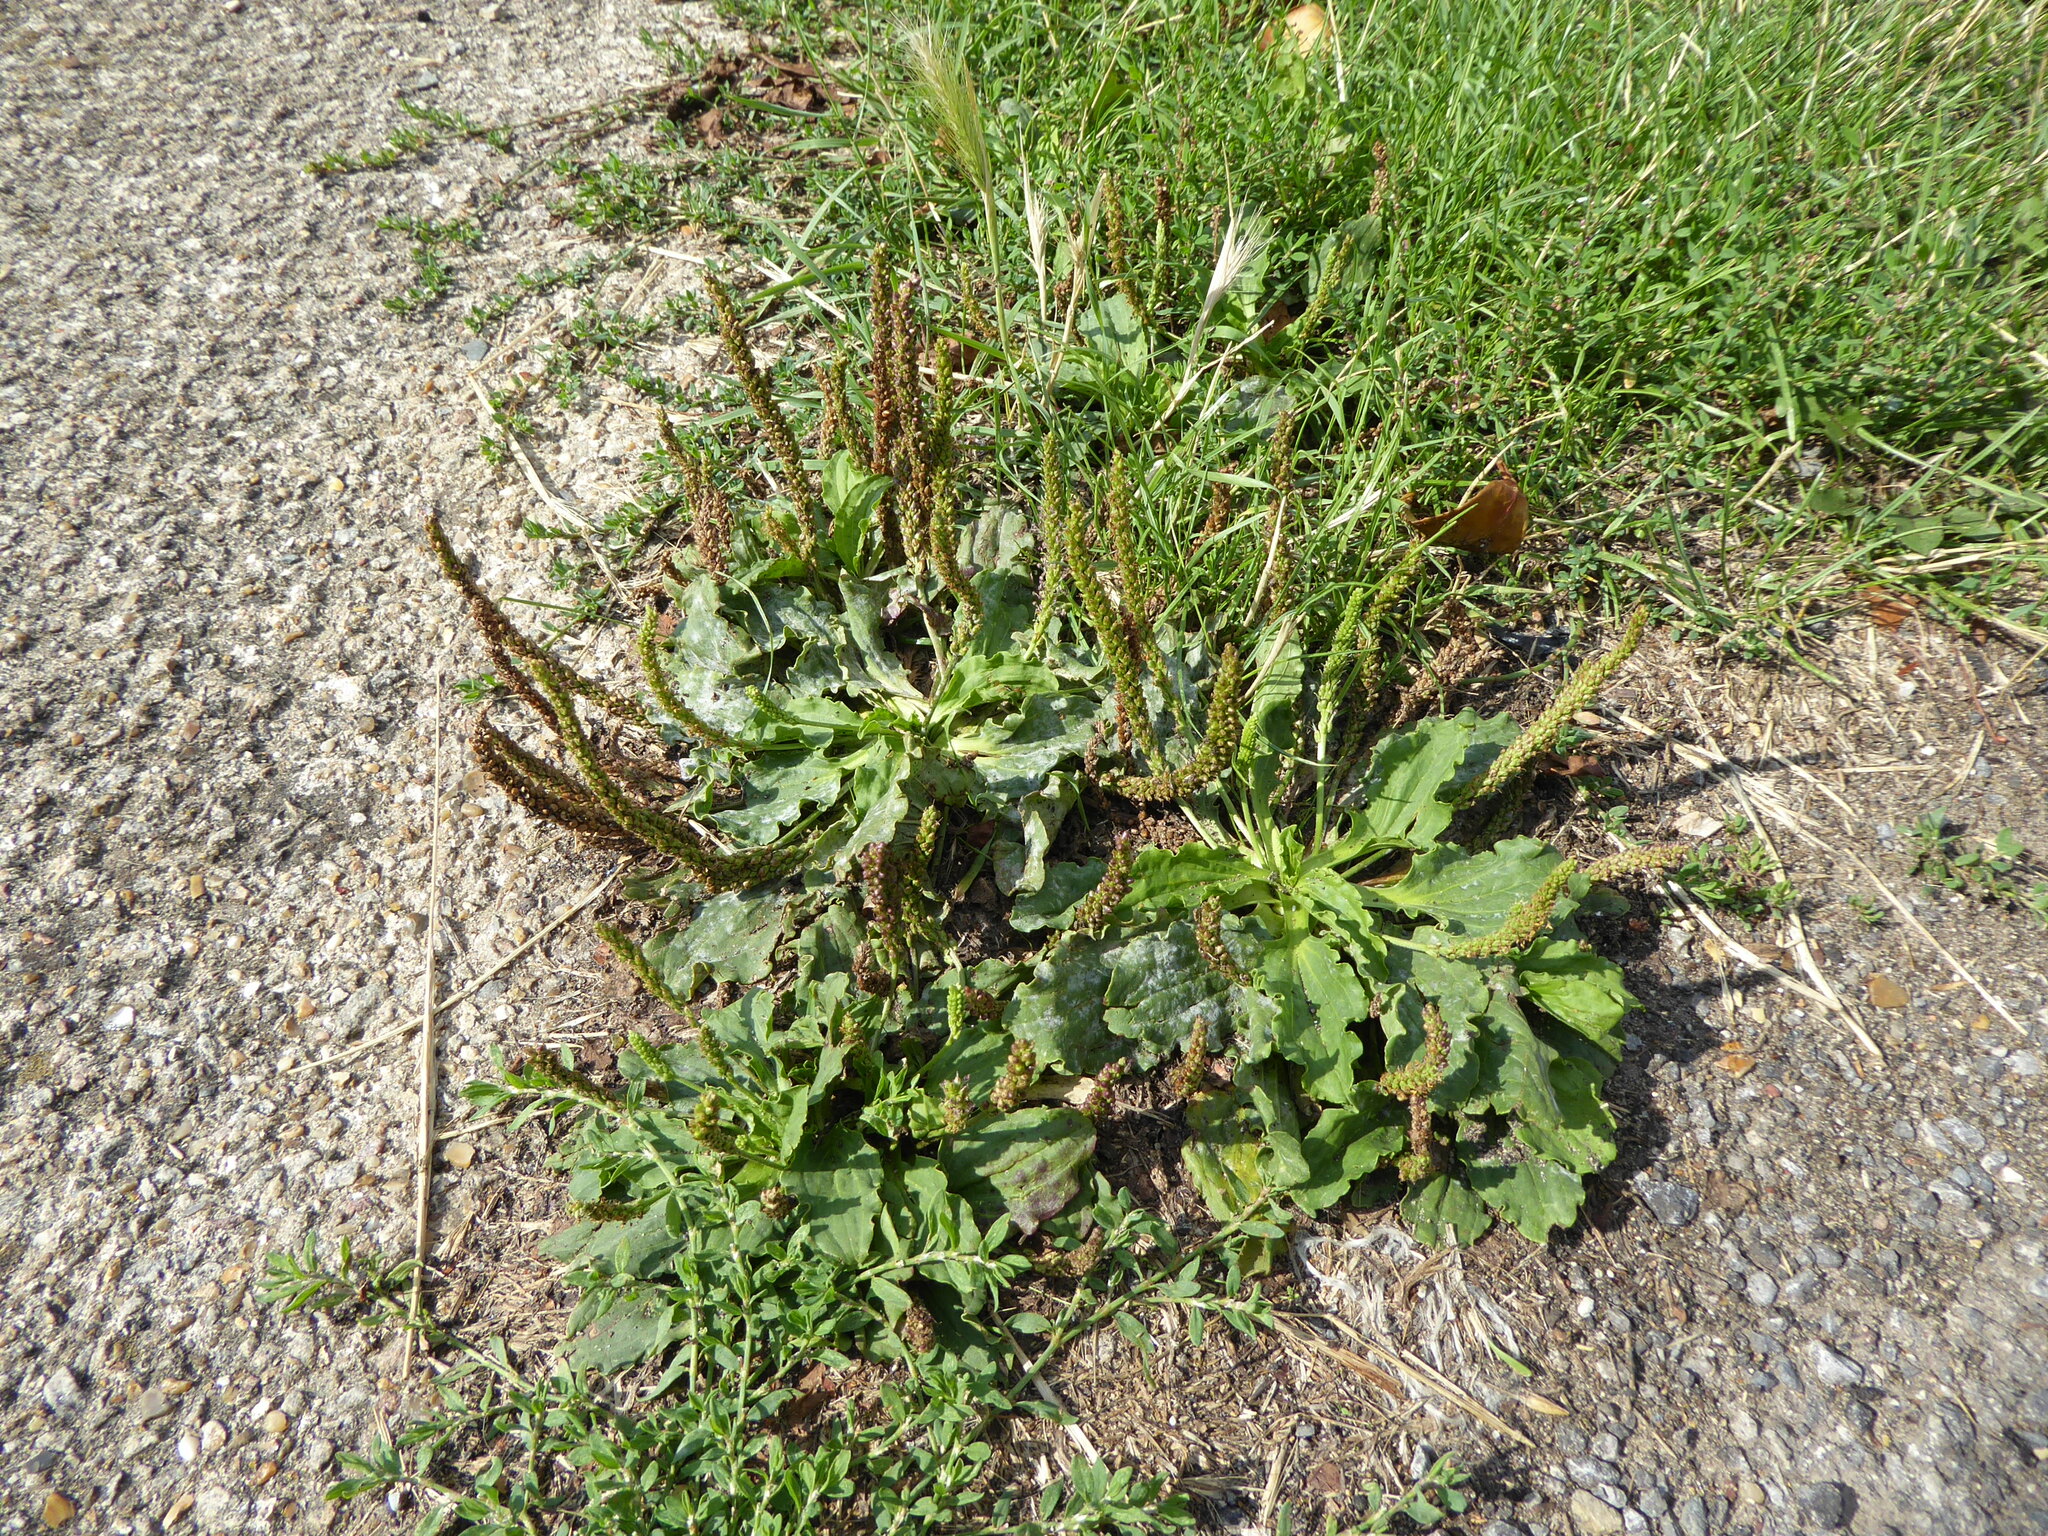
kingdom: Plantae
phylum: Tracheophyta
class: Magnoliopsida
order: Lamiales
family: Plantaginaceae
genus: Plantago
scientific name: Plantago major
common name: Common plantain
